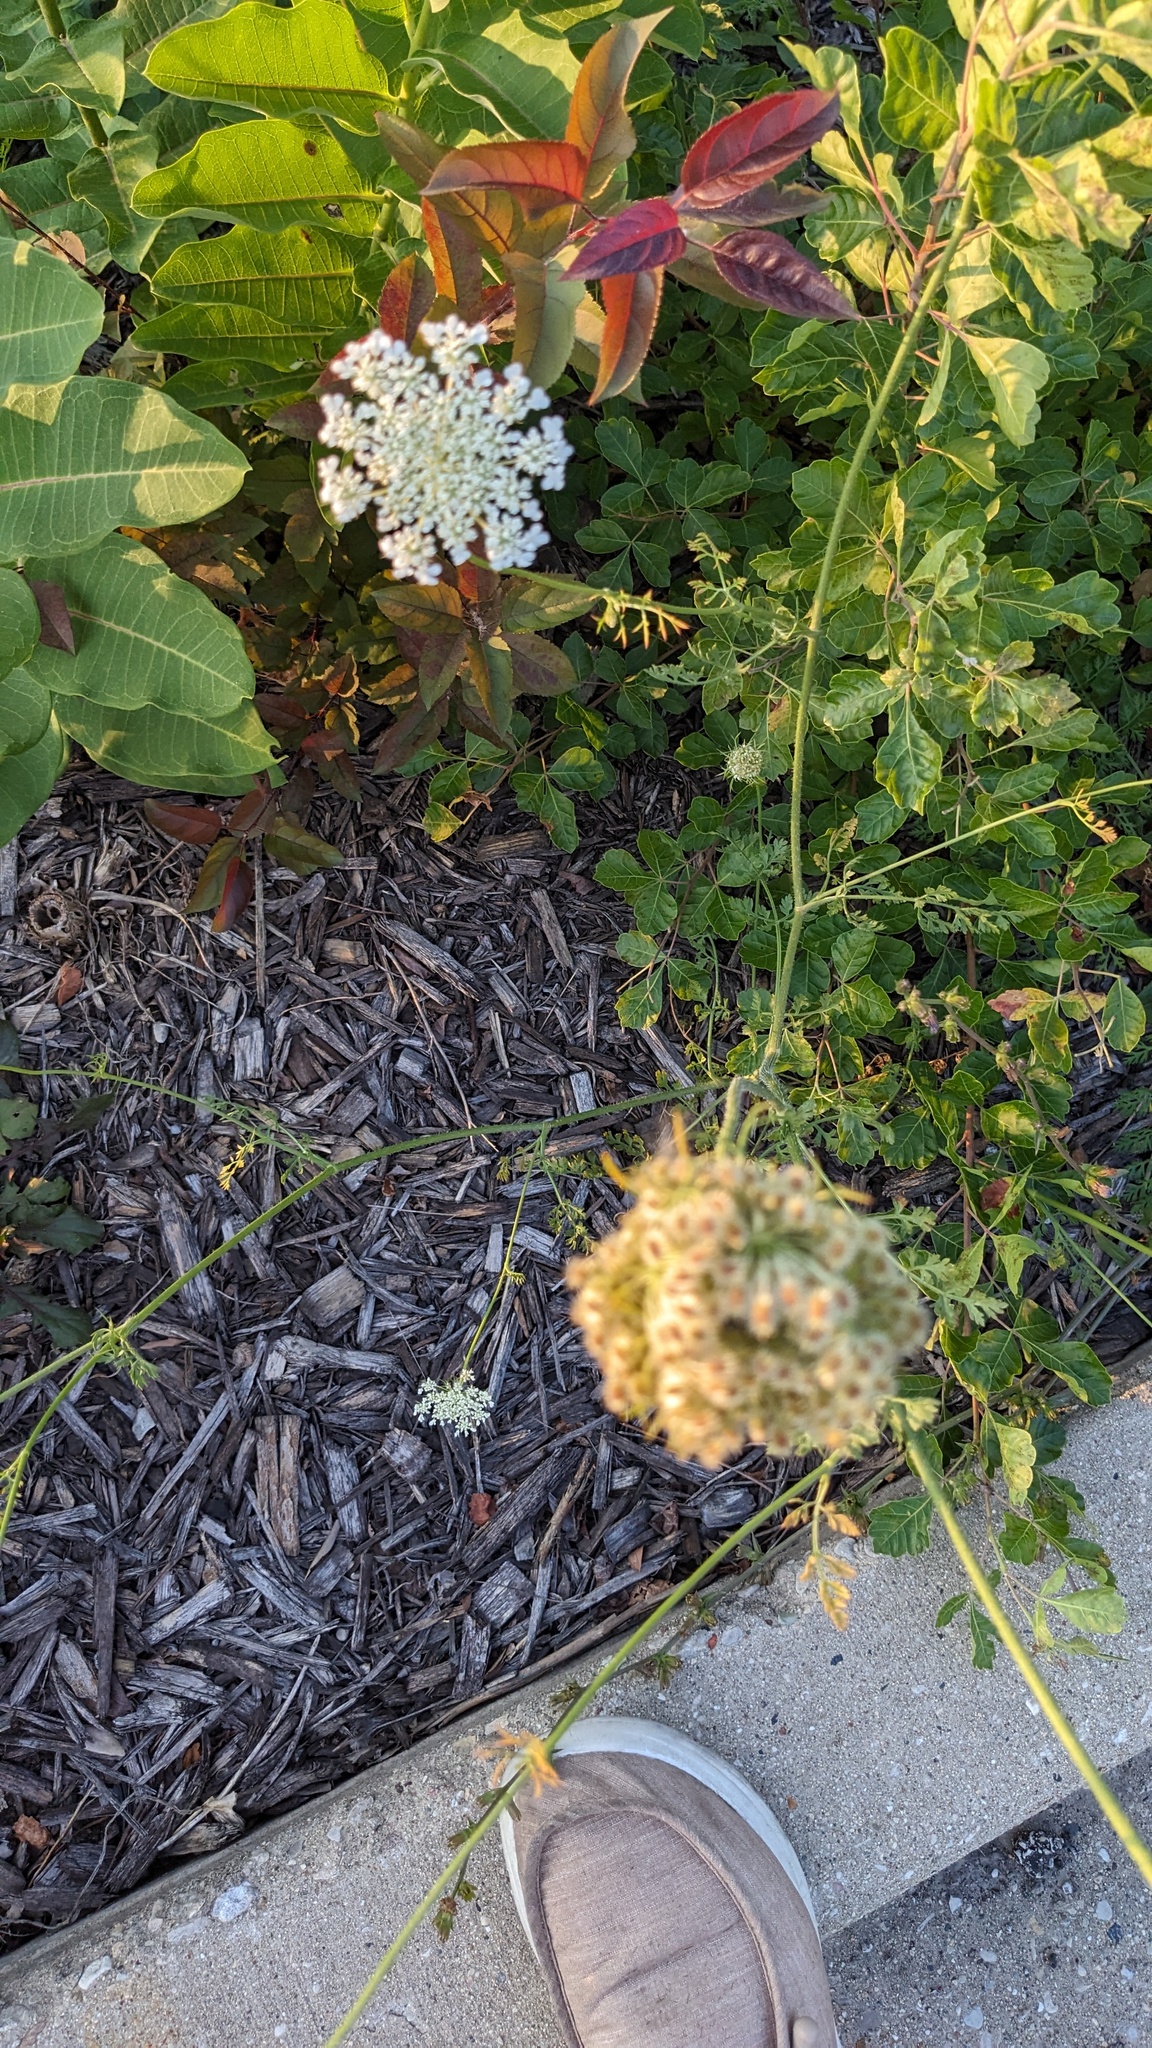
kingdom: Plantae
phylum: Tracheophyta
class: Magnoliopsida
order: Apiales
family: Apiaceae
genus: Daucus
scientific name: Daucus carota
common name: Wild carrot
